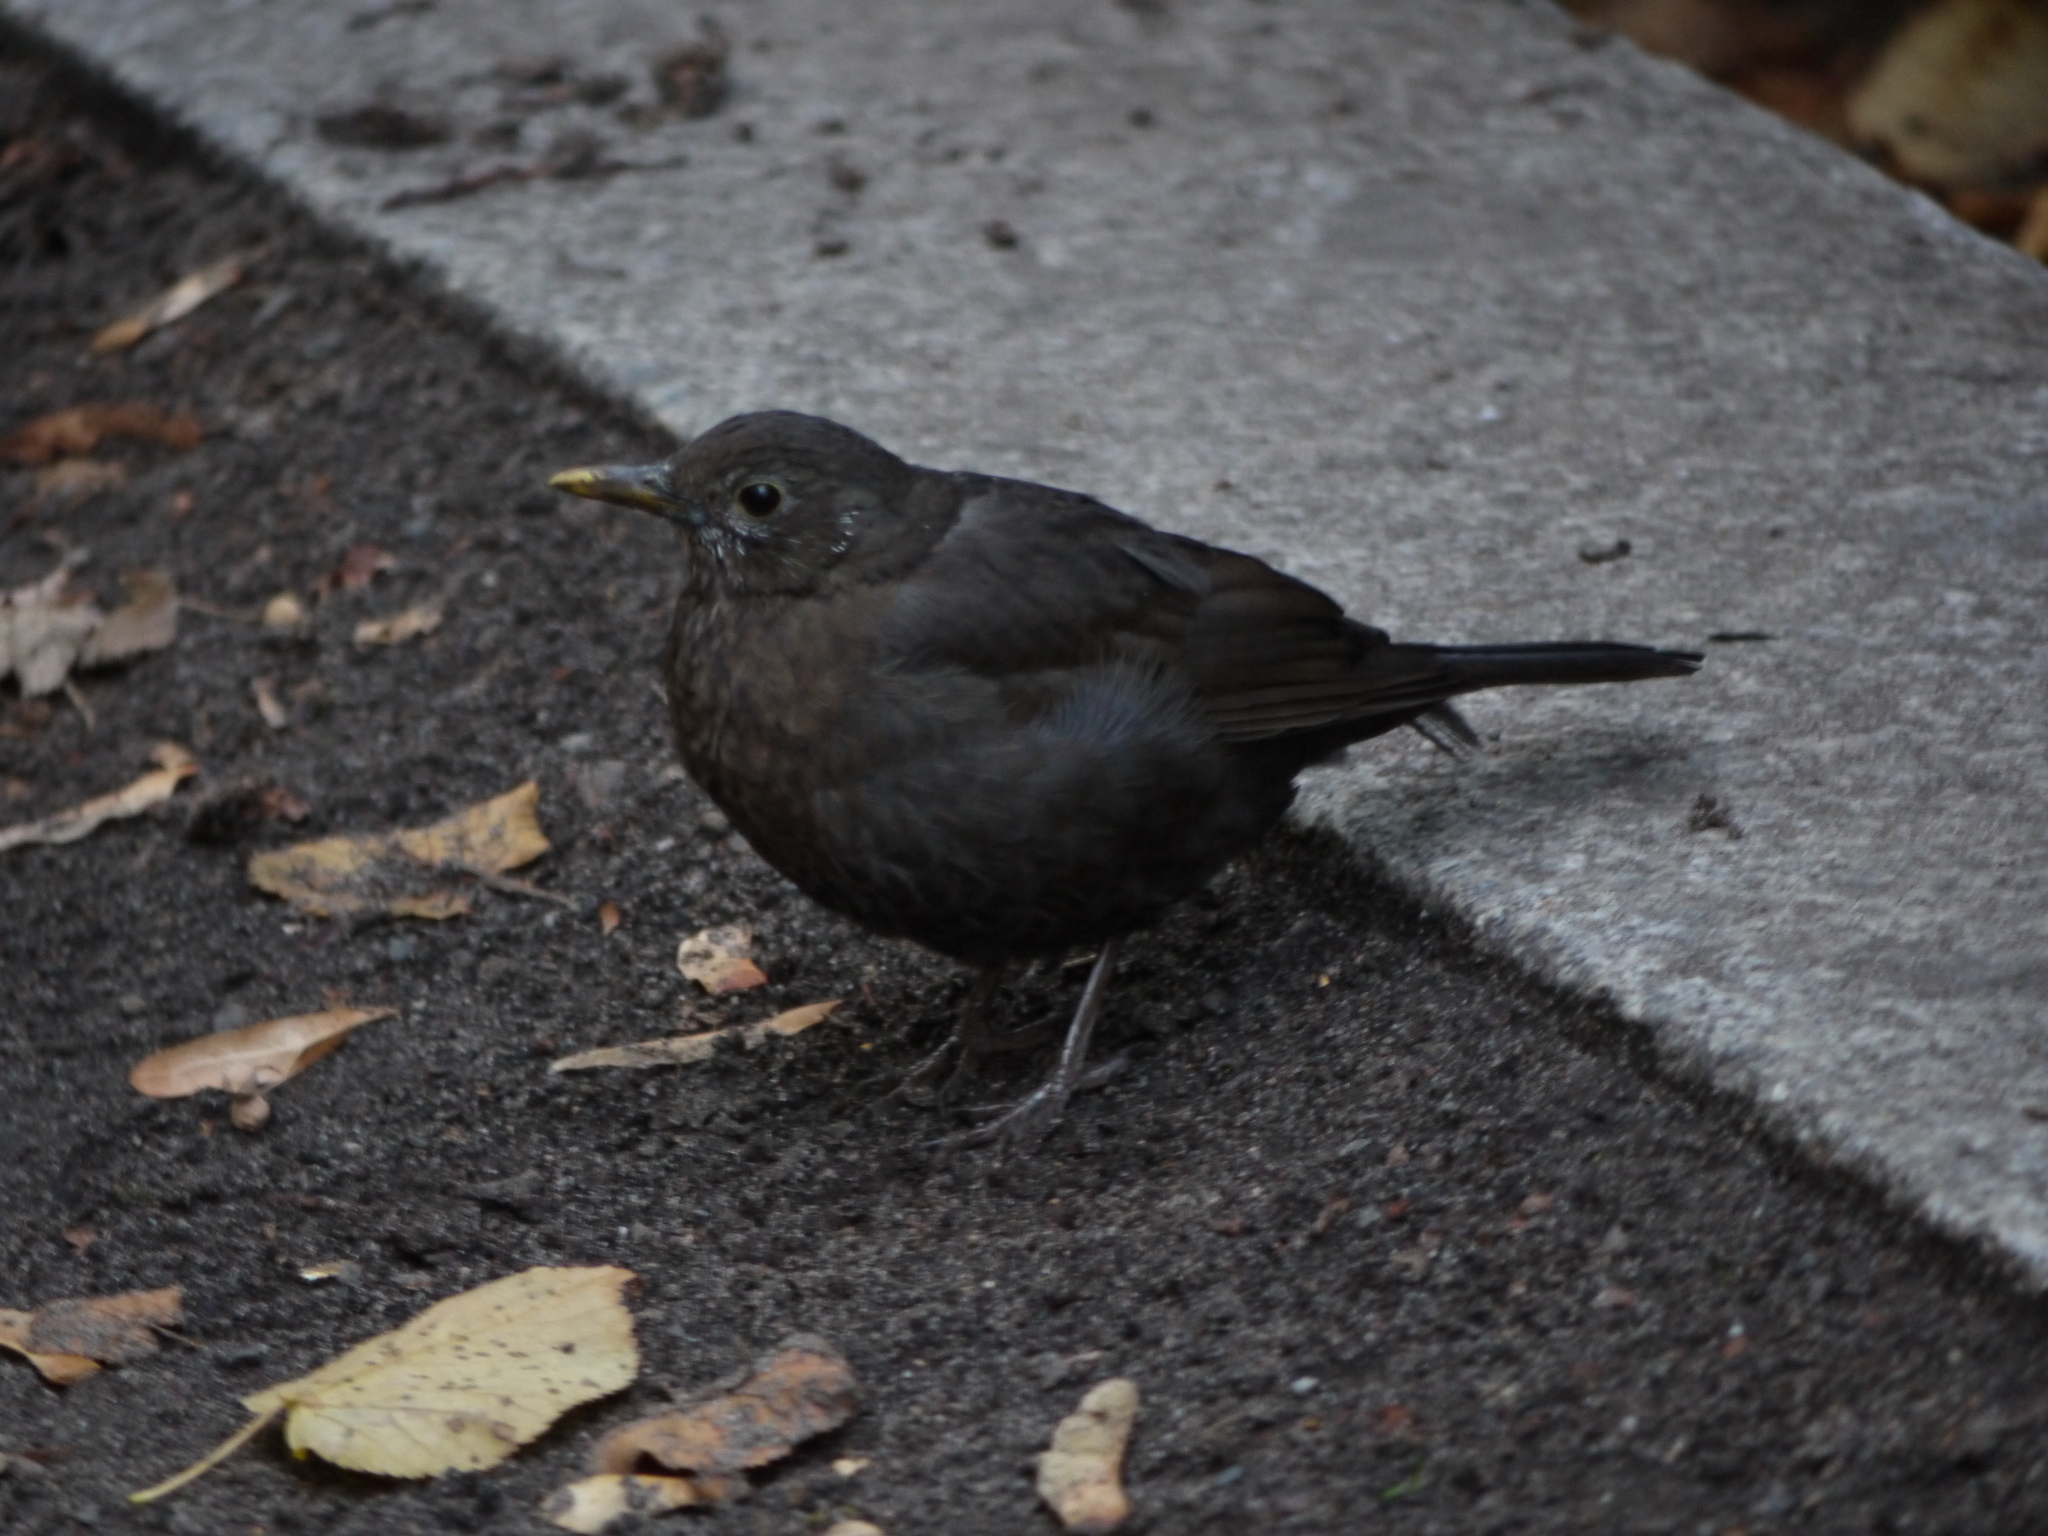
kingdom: Animalia
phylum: Chordata
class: Aves
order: Passeriformes
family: Turdidae
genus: Turdus
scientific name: Turdus merula
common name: Common blackbird
